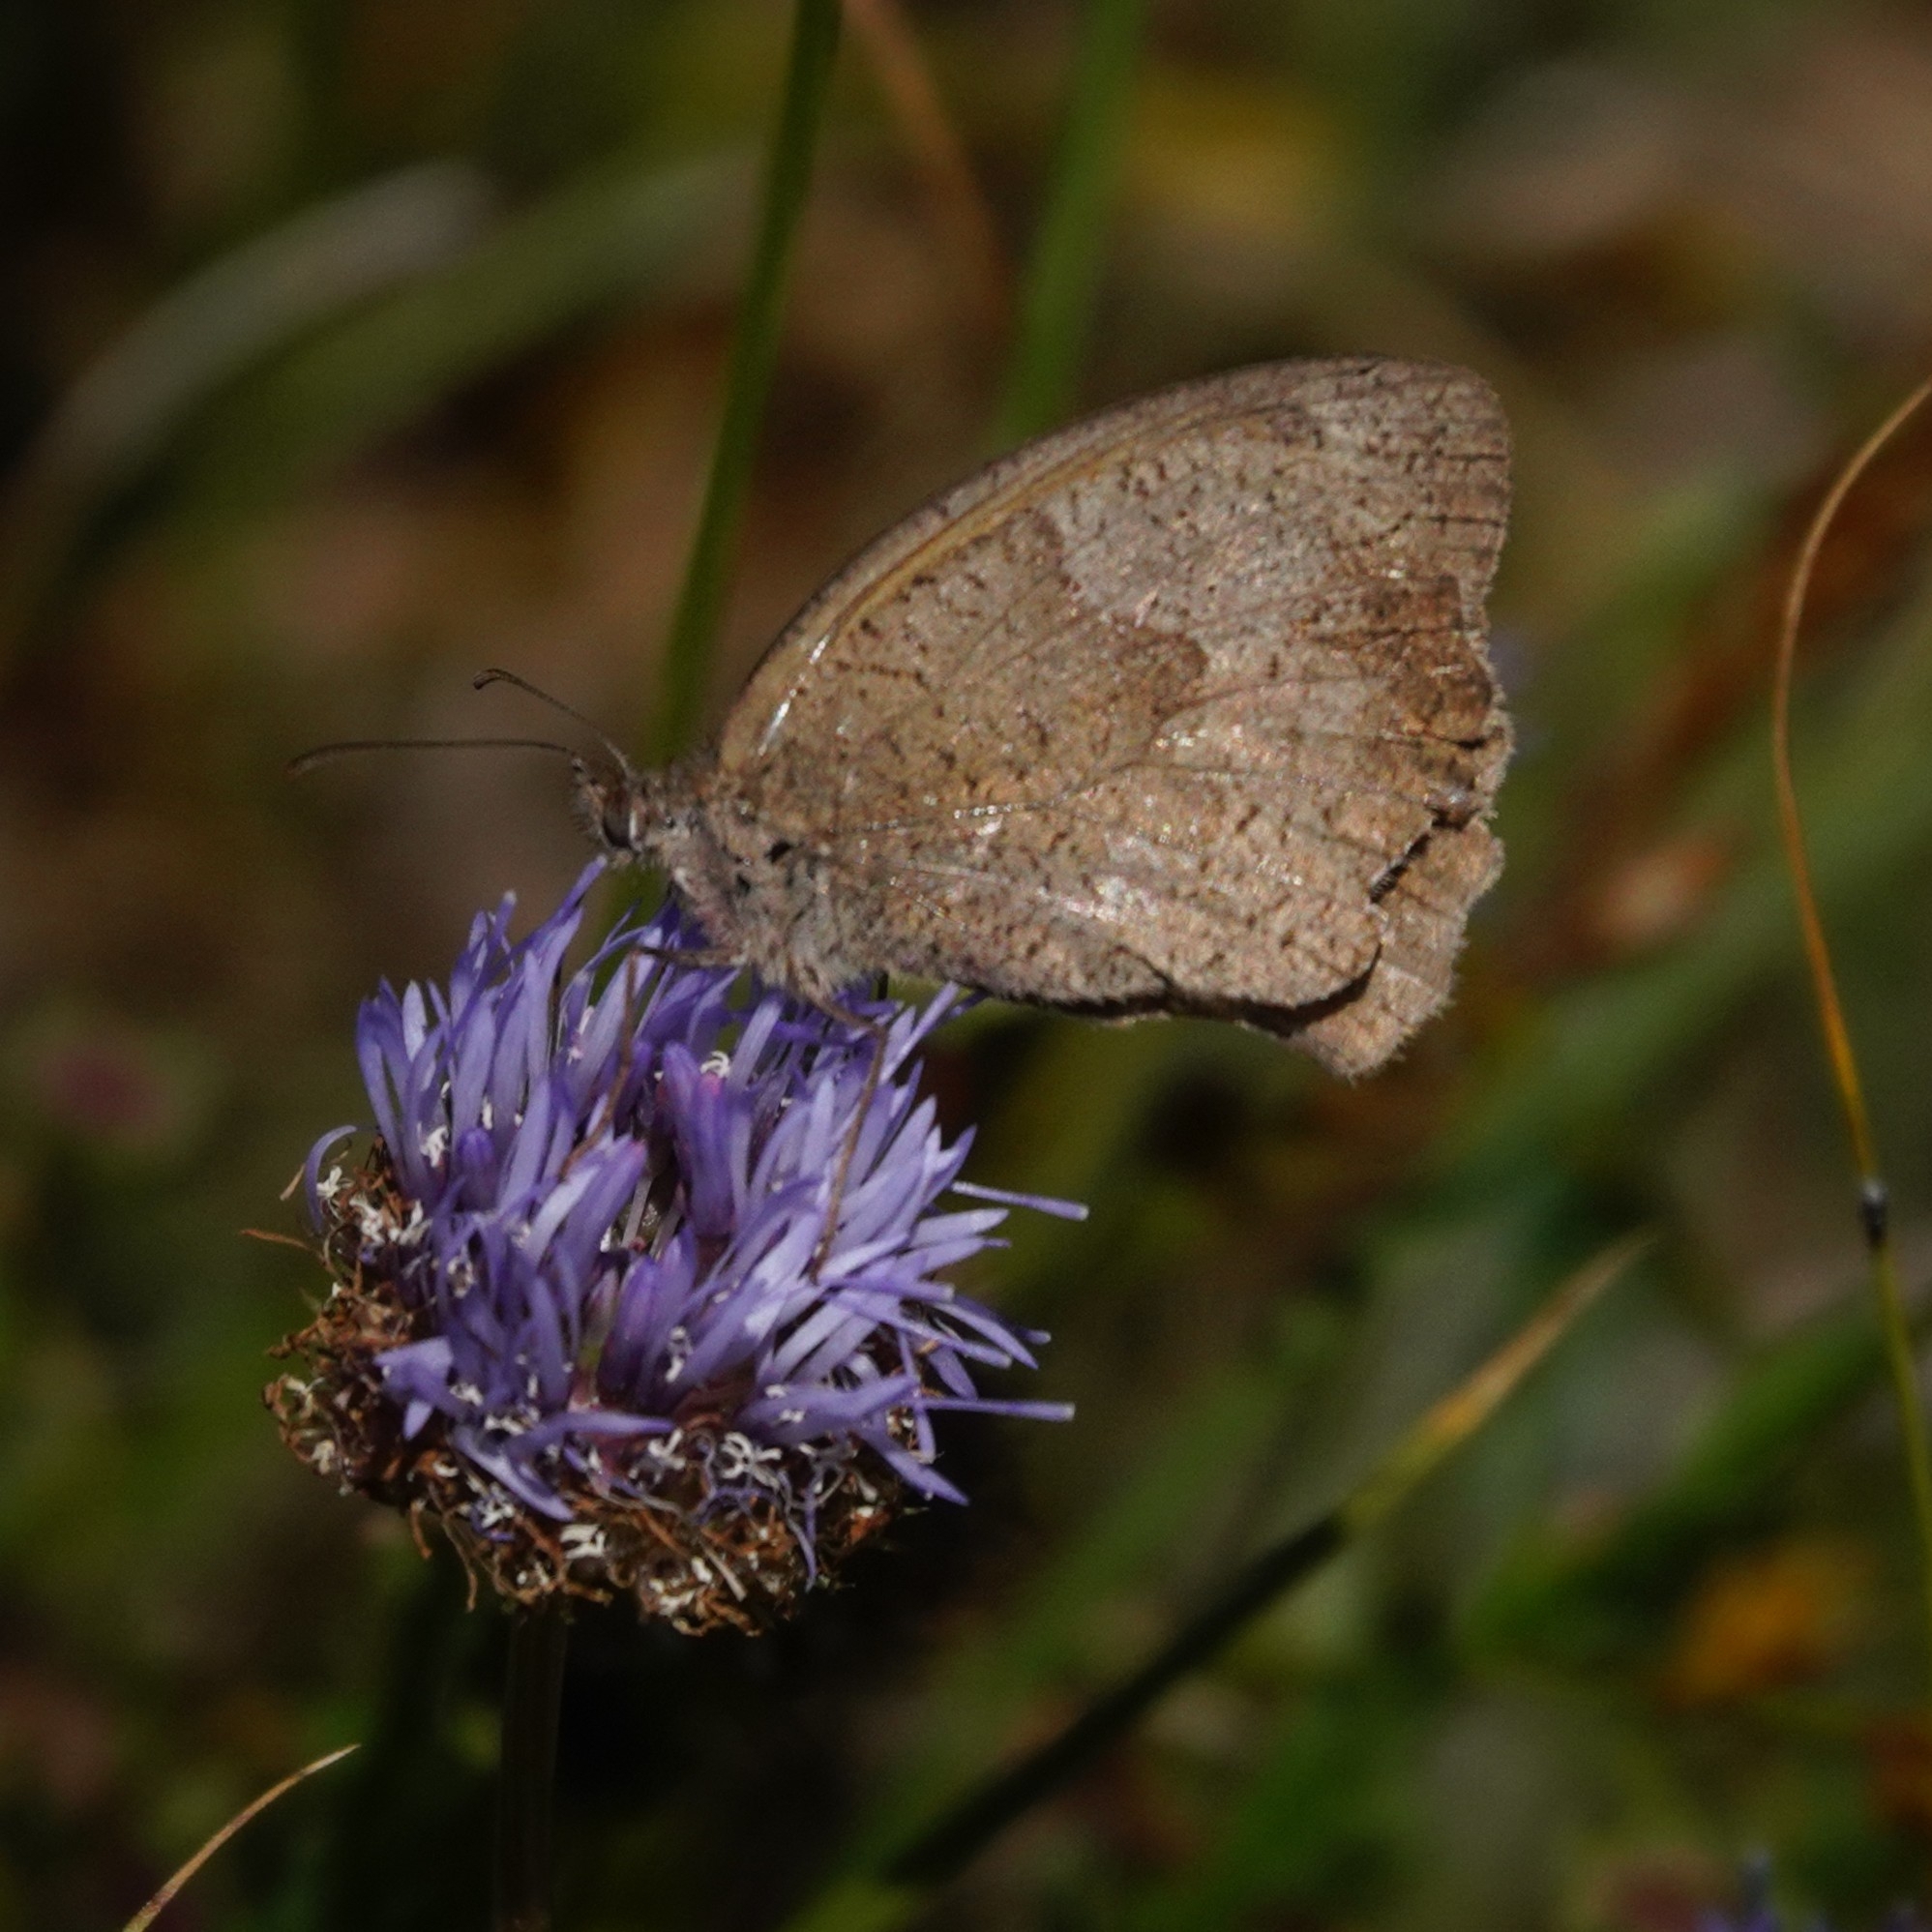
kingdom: Animalia
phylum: Arthropoda
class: Insecta
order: Lepidoptera
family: Nymphalidae
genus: Maniola
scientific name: Maniola jurtina
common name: Meadow brown
